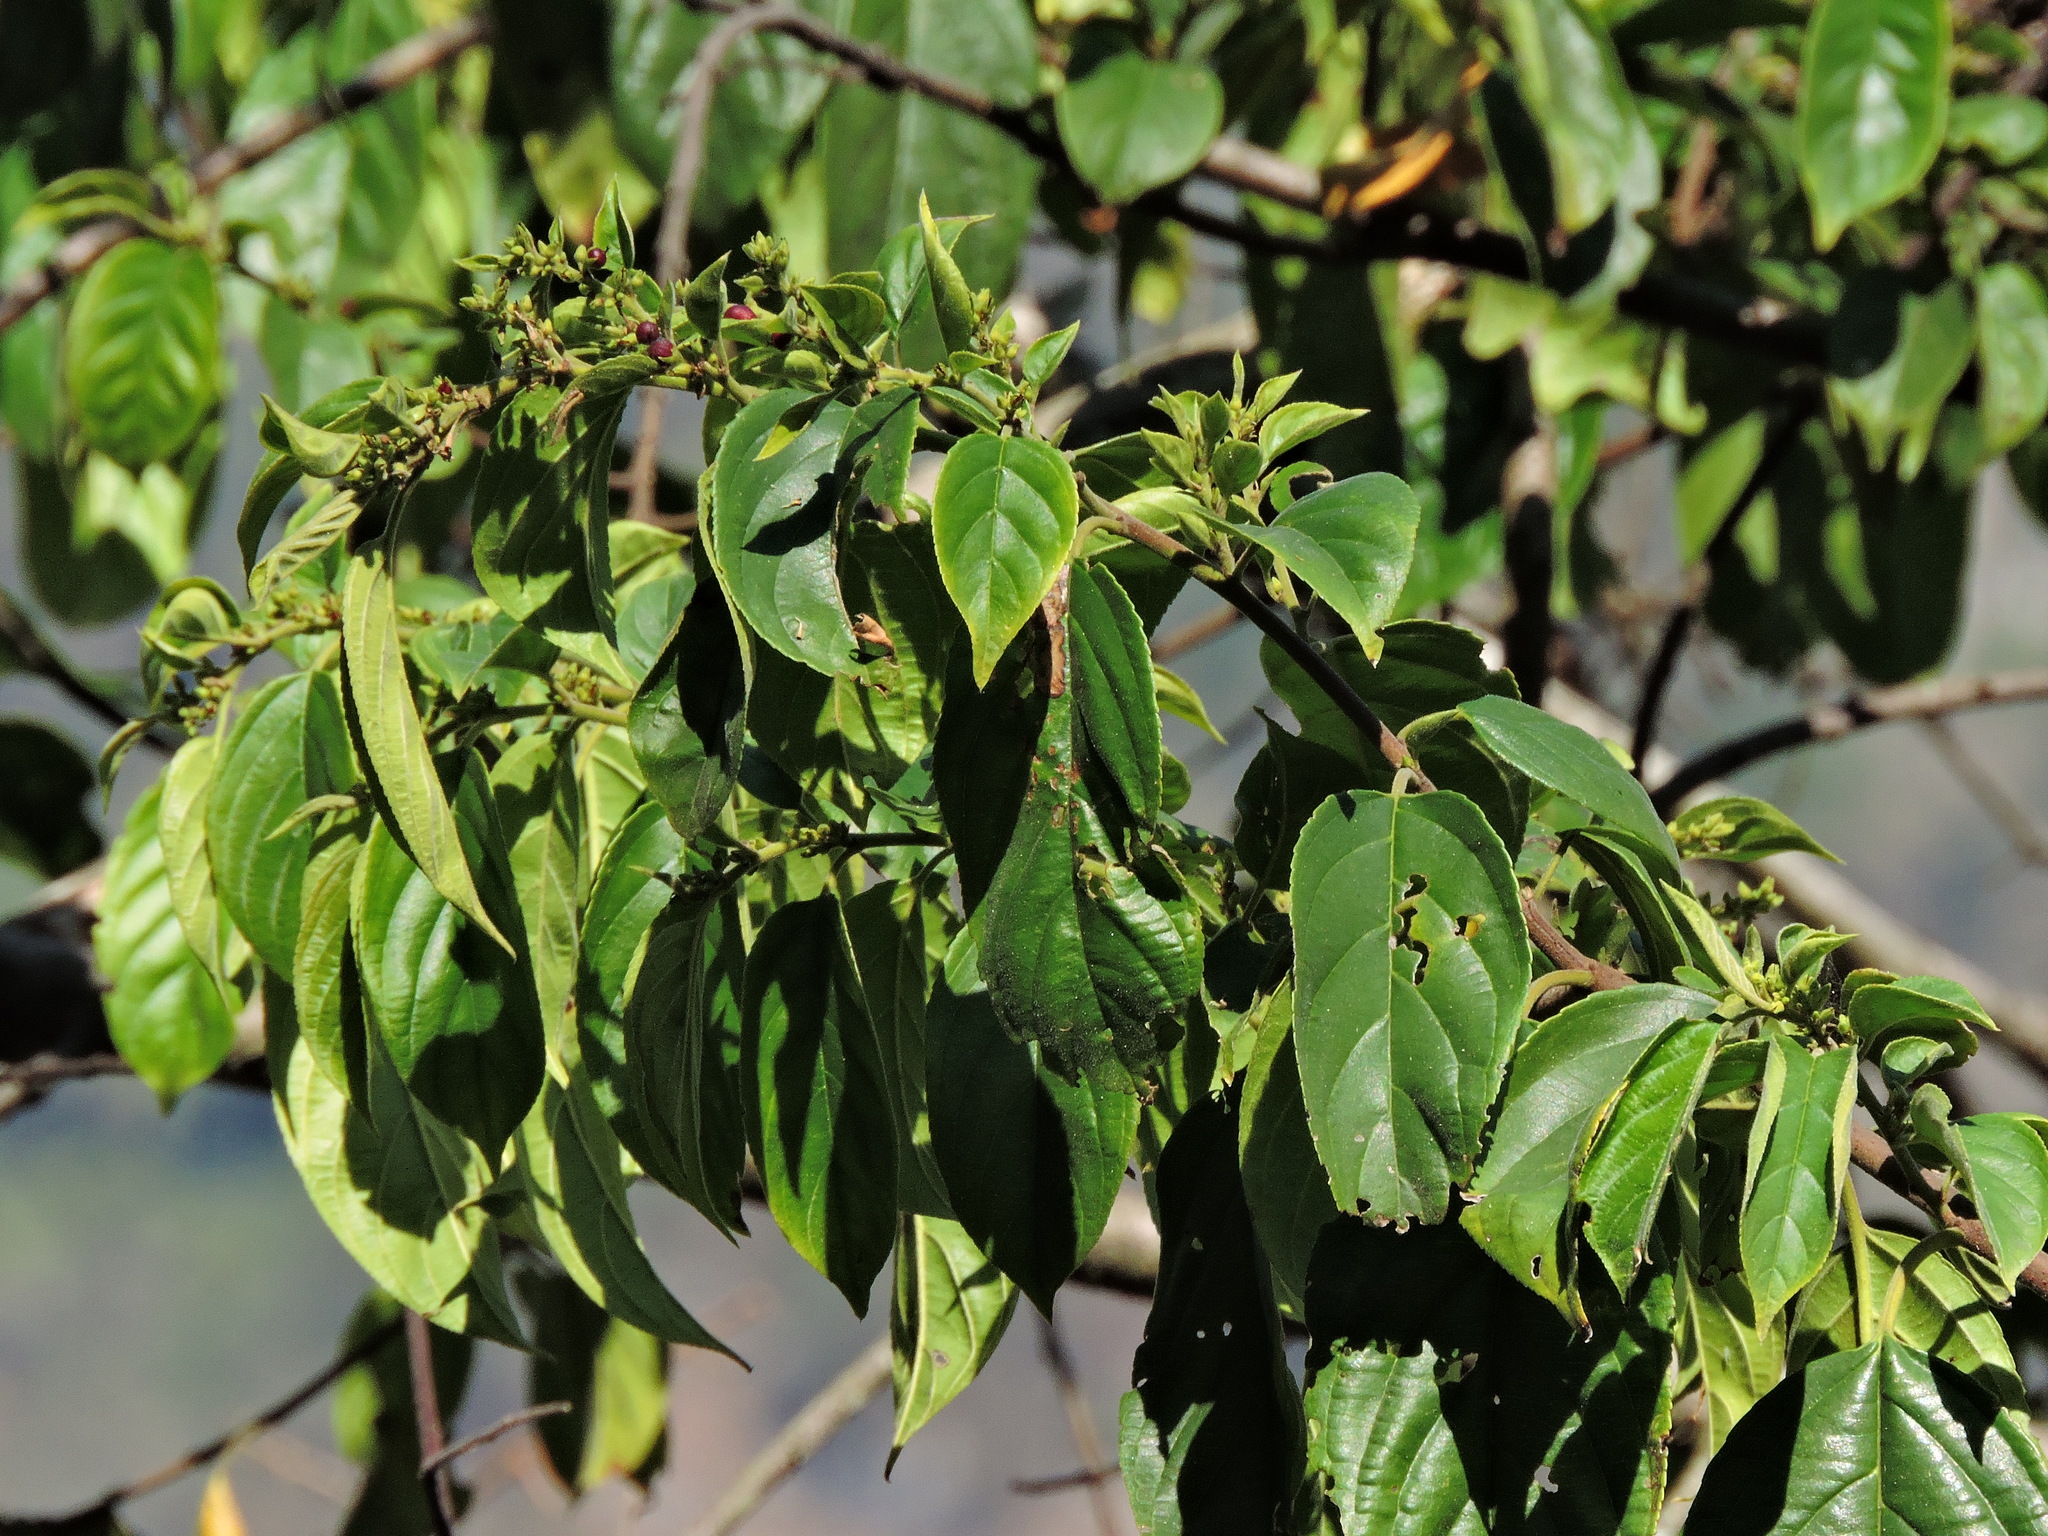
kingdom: Plantae
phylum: Tracheophyta
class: Magnoliopsida
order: Rosales
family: Rhamnaceae
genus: Rhamnus
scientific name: Rhamnus formosana
